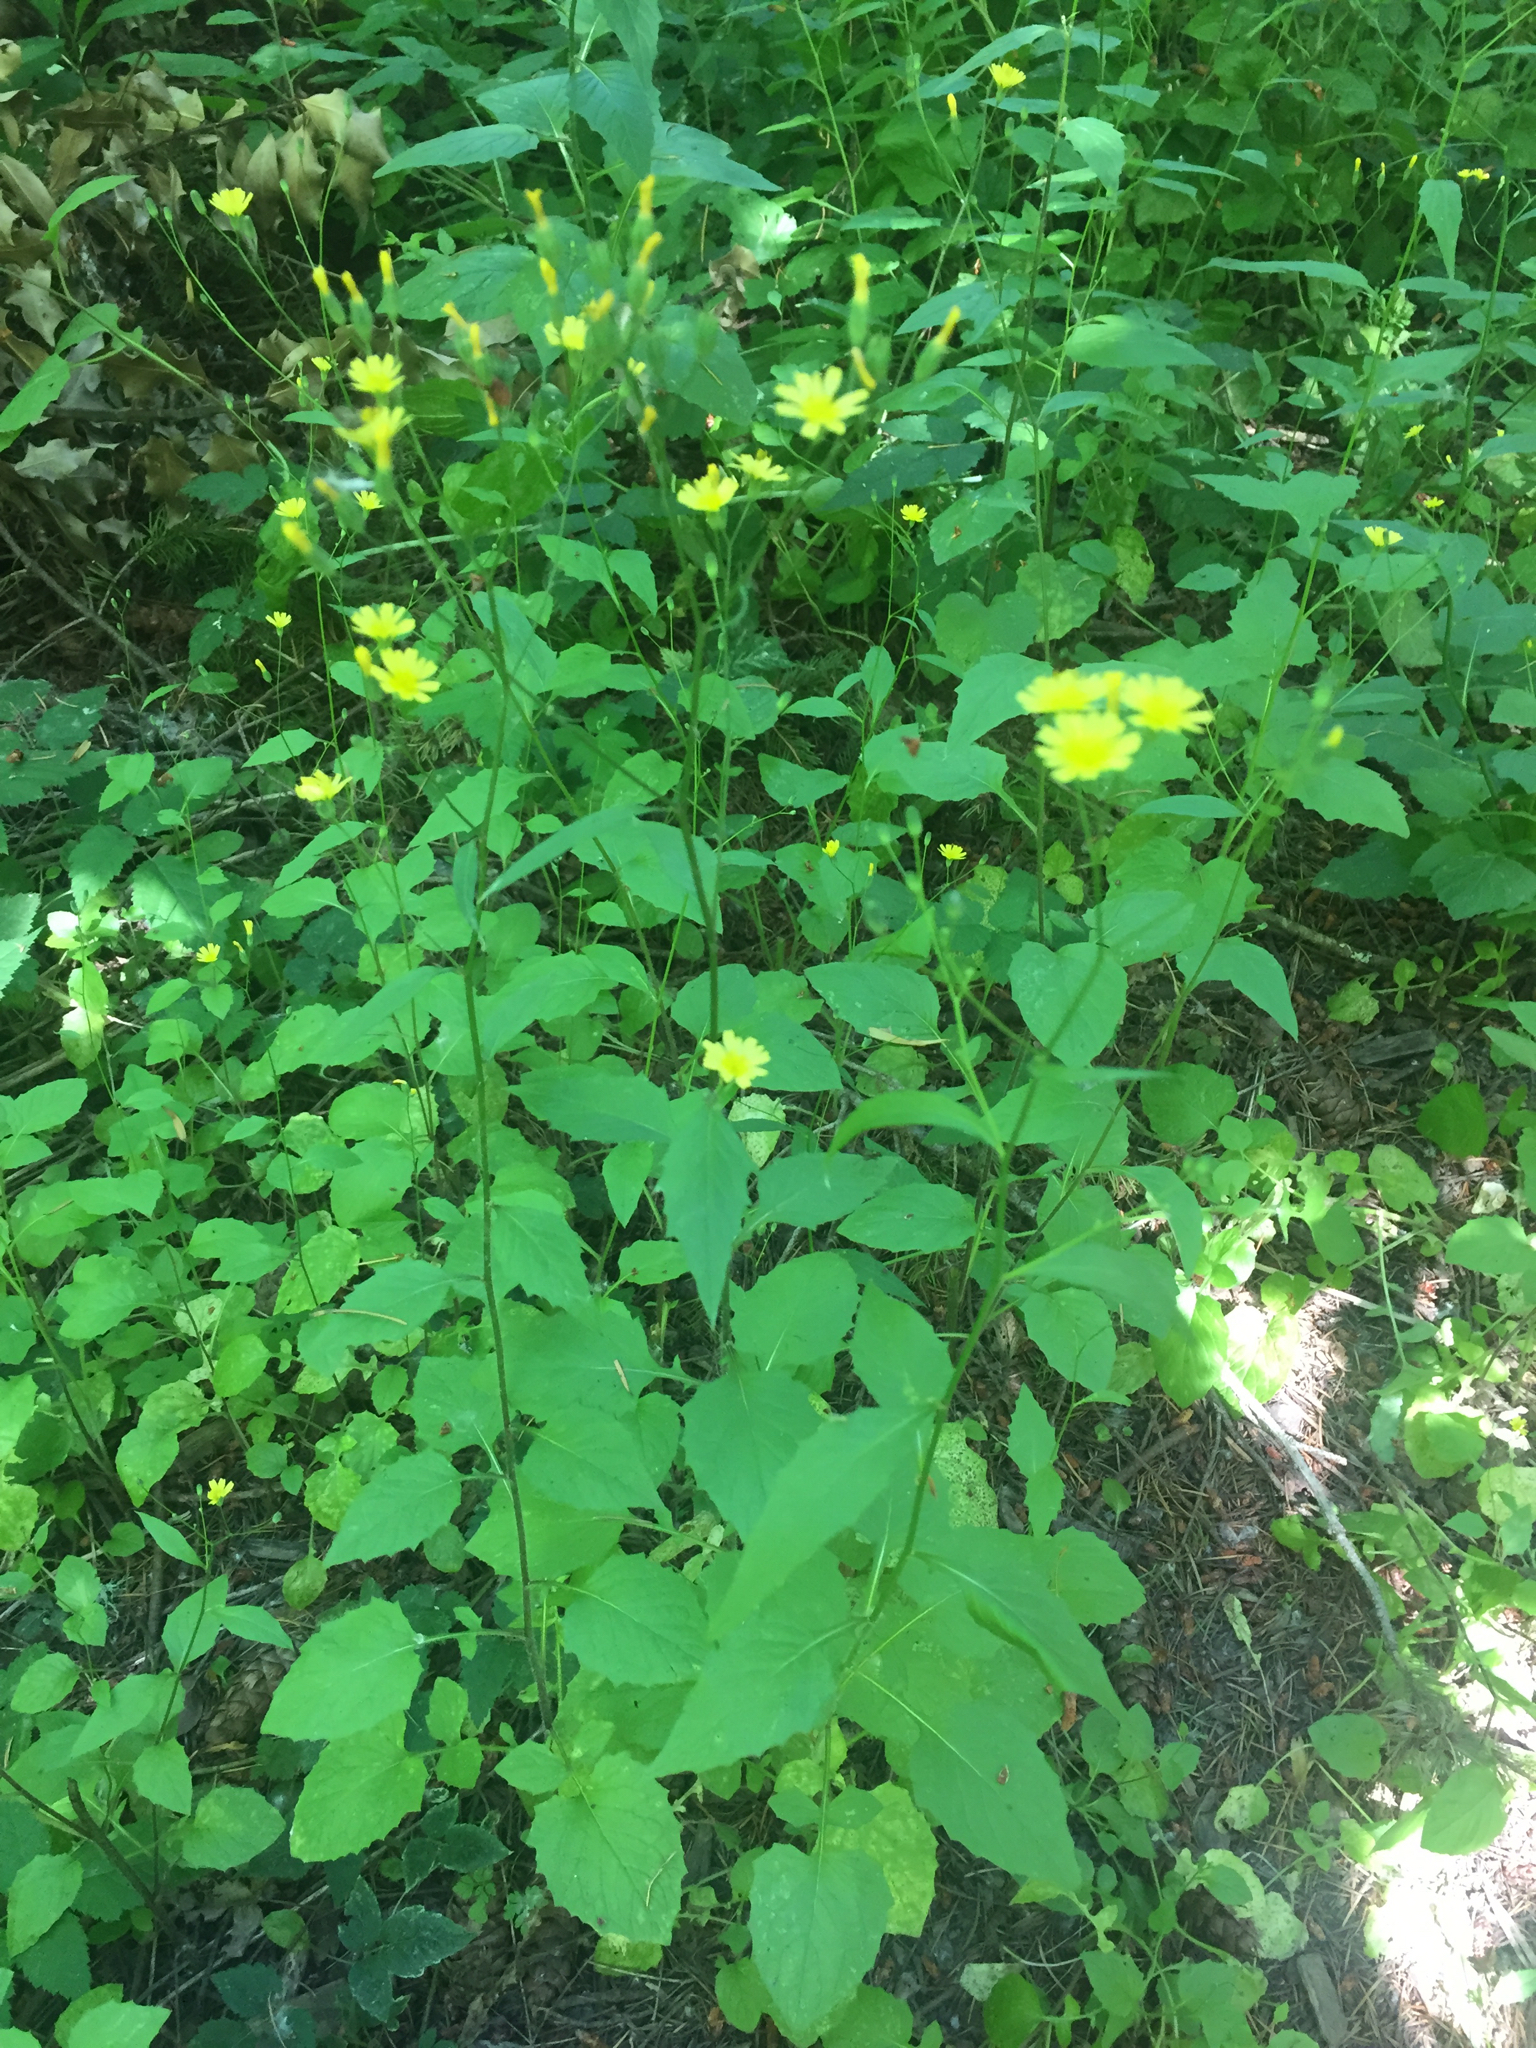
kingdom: Plantae
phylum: Tracheophyta
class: Magnoliopsida
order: Asterales
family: Asteraceae
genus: Lapsana
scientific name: Lapsana communis
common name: Nipplewort
